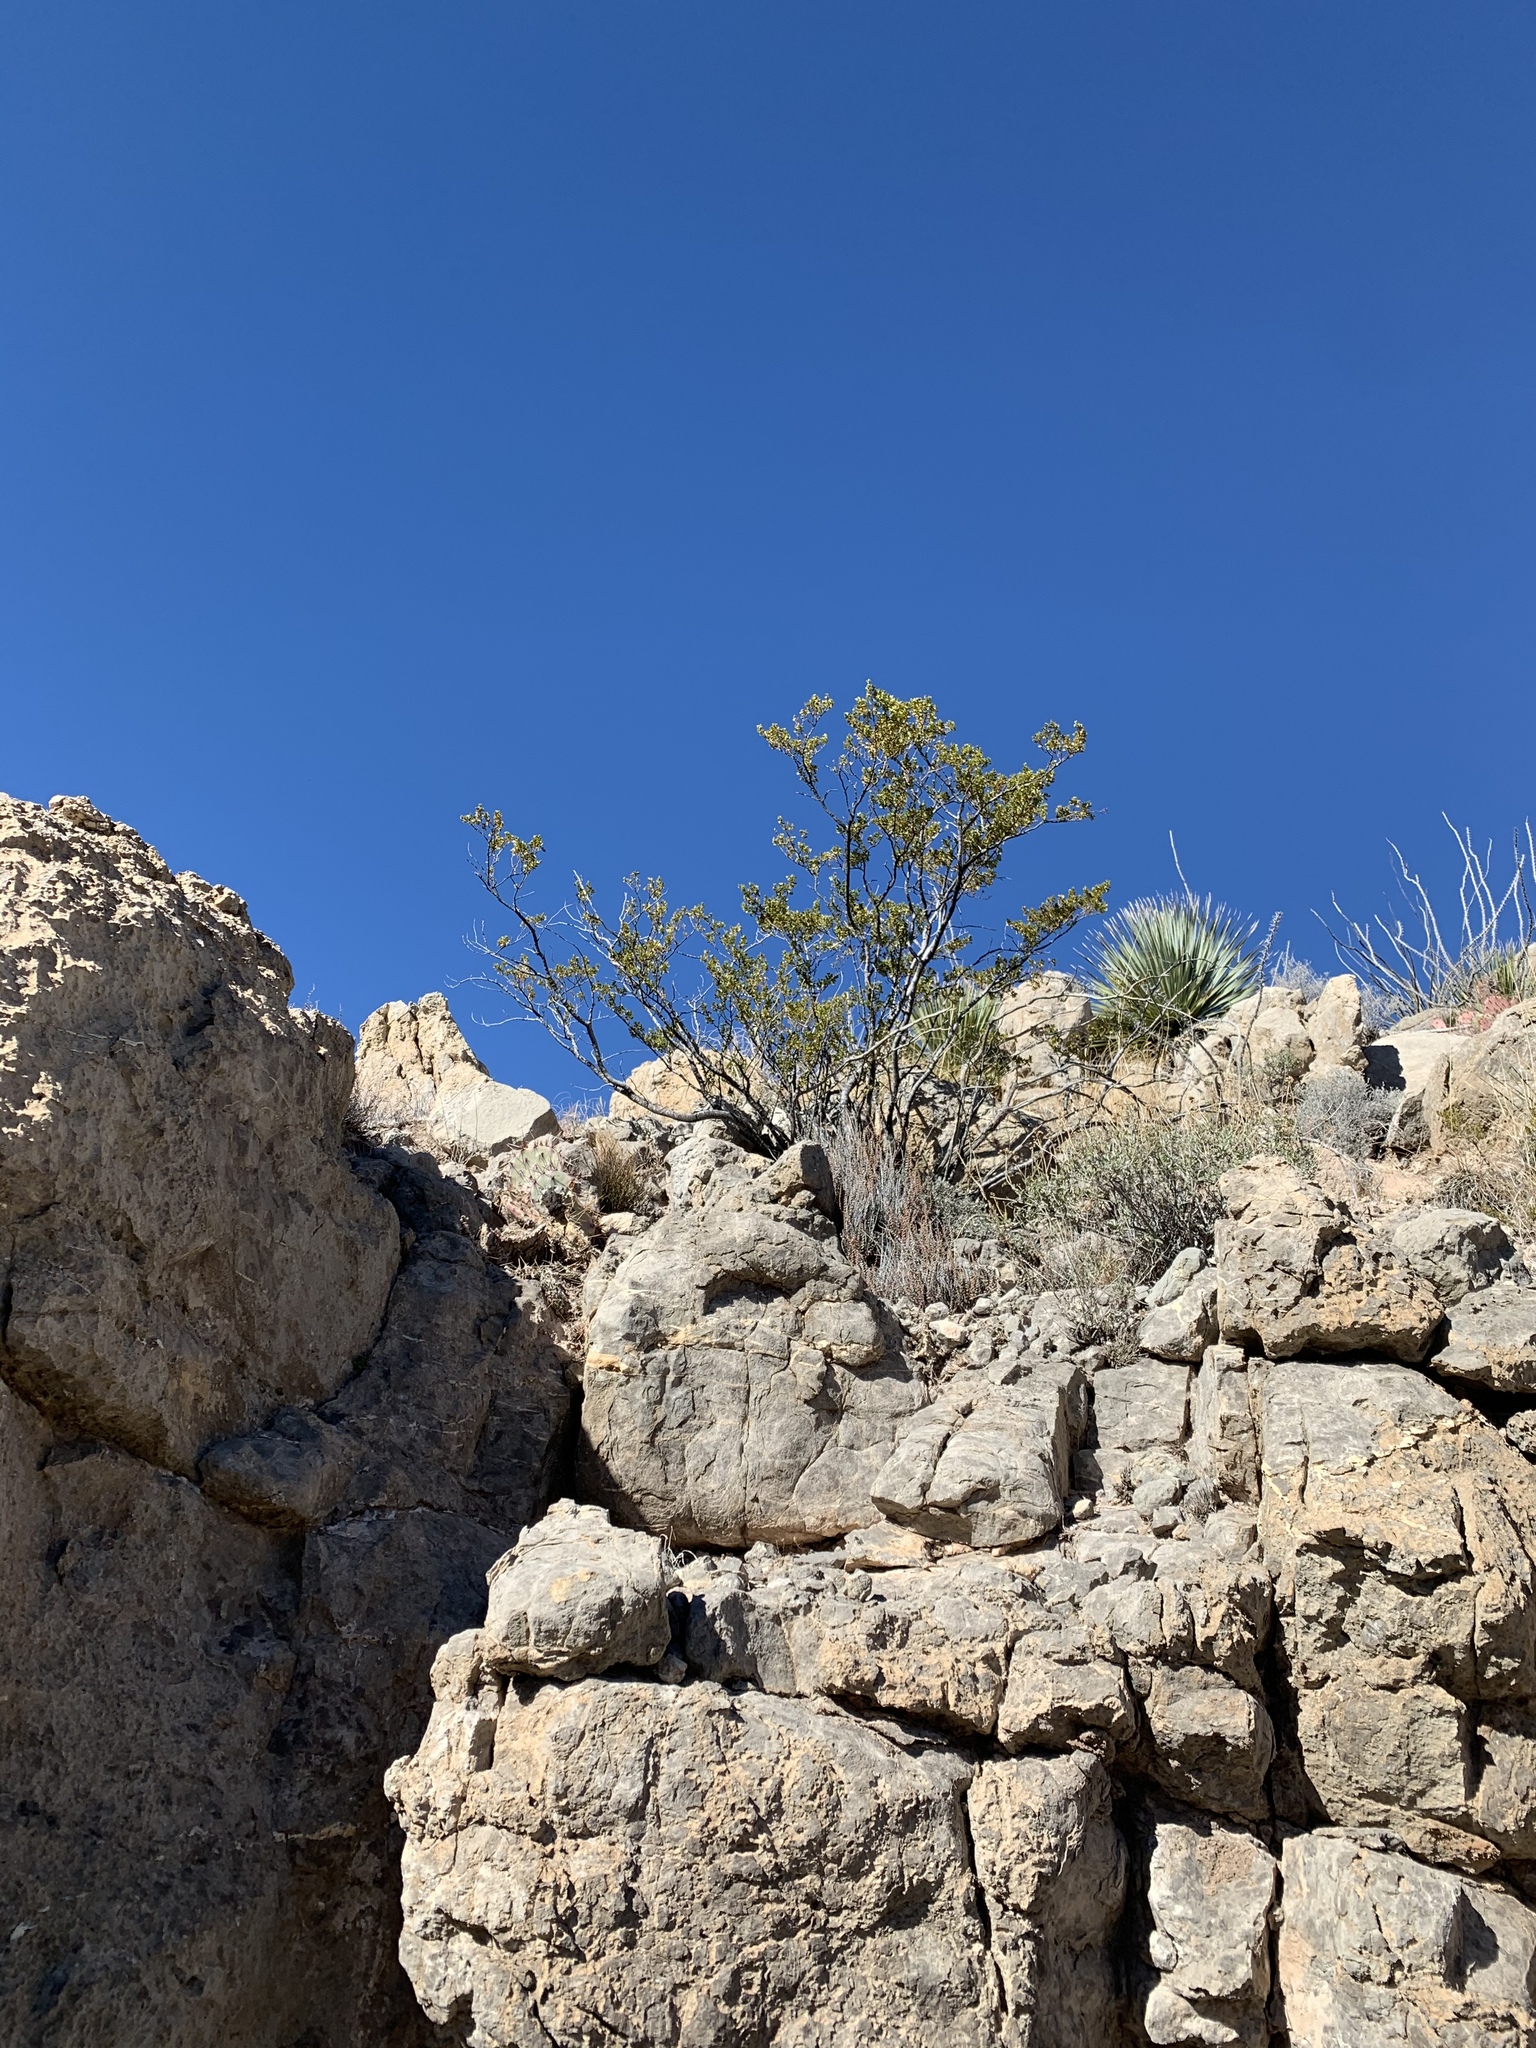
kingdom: Plantae
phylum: Tracheophyta
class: Magnoliopsida
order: Zygophyllales
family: Zygophyllaceae
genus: Larrea
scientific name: Larrea tridentata
